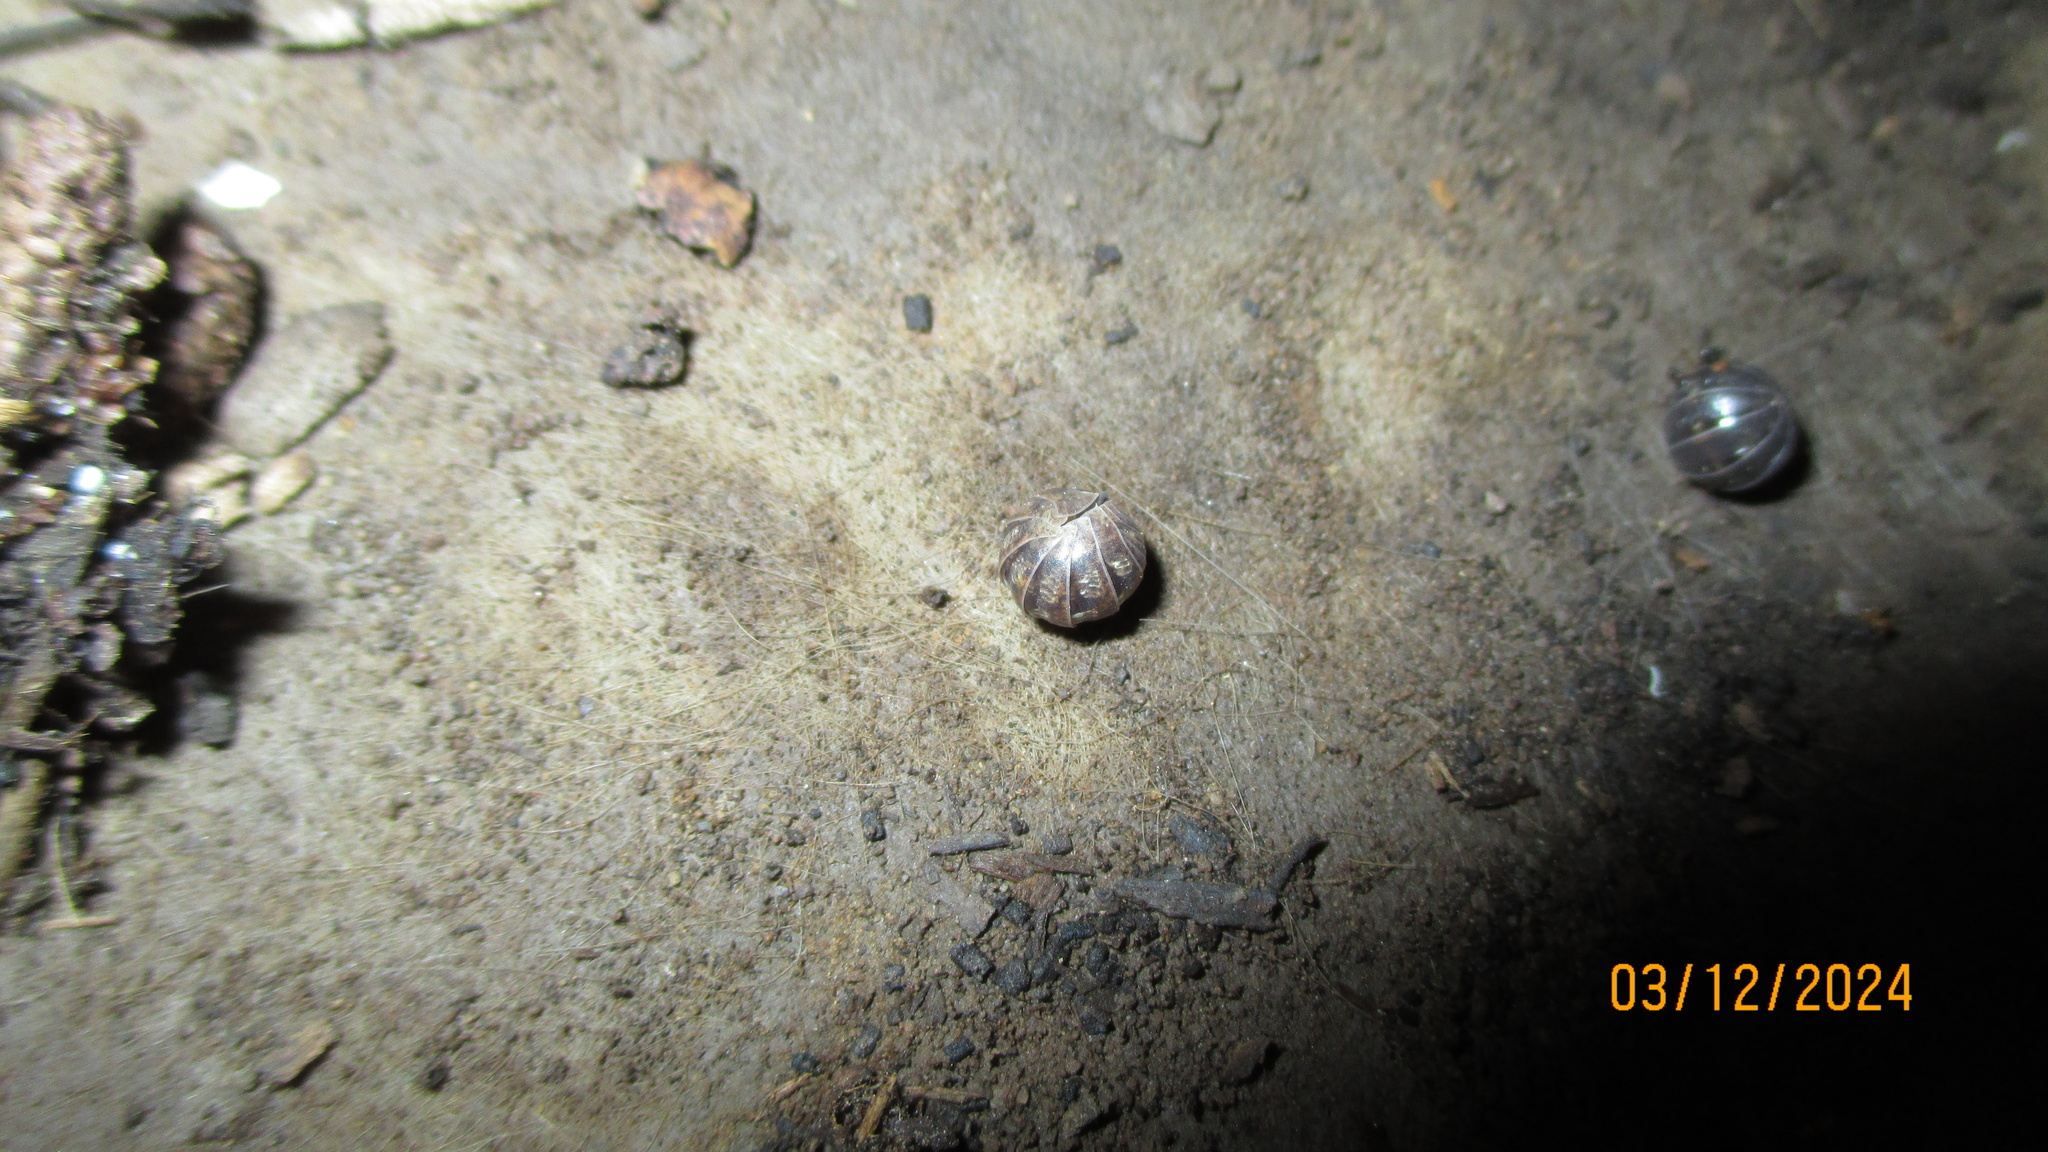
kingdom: Animalia
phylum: Arthropoda
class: Malacostraca
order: Isopoda
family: Armadillidiidae
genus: Armadillidium
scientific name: Armadillidium vulgare
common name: Common pill woodlouse
